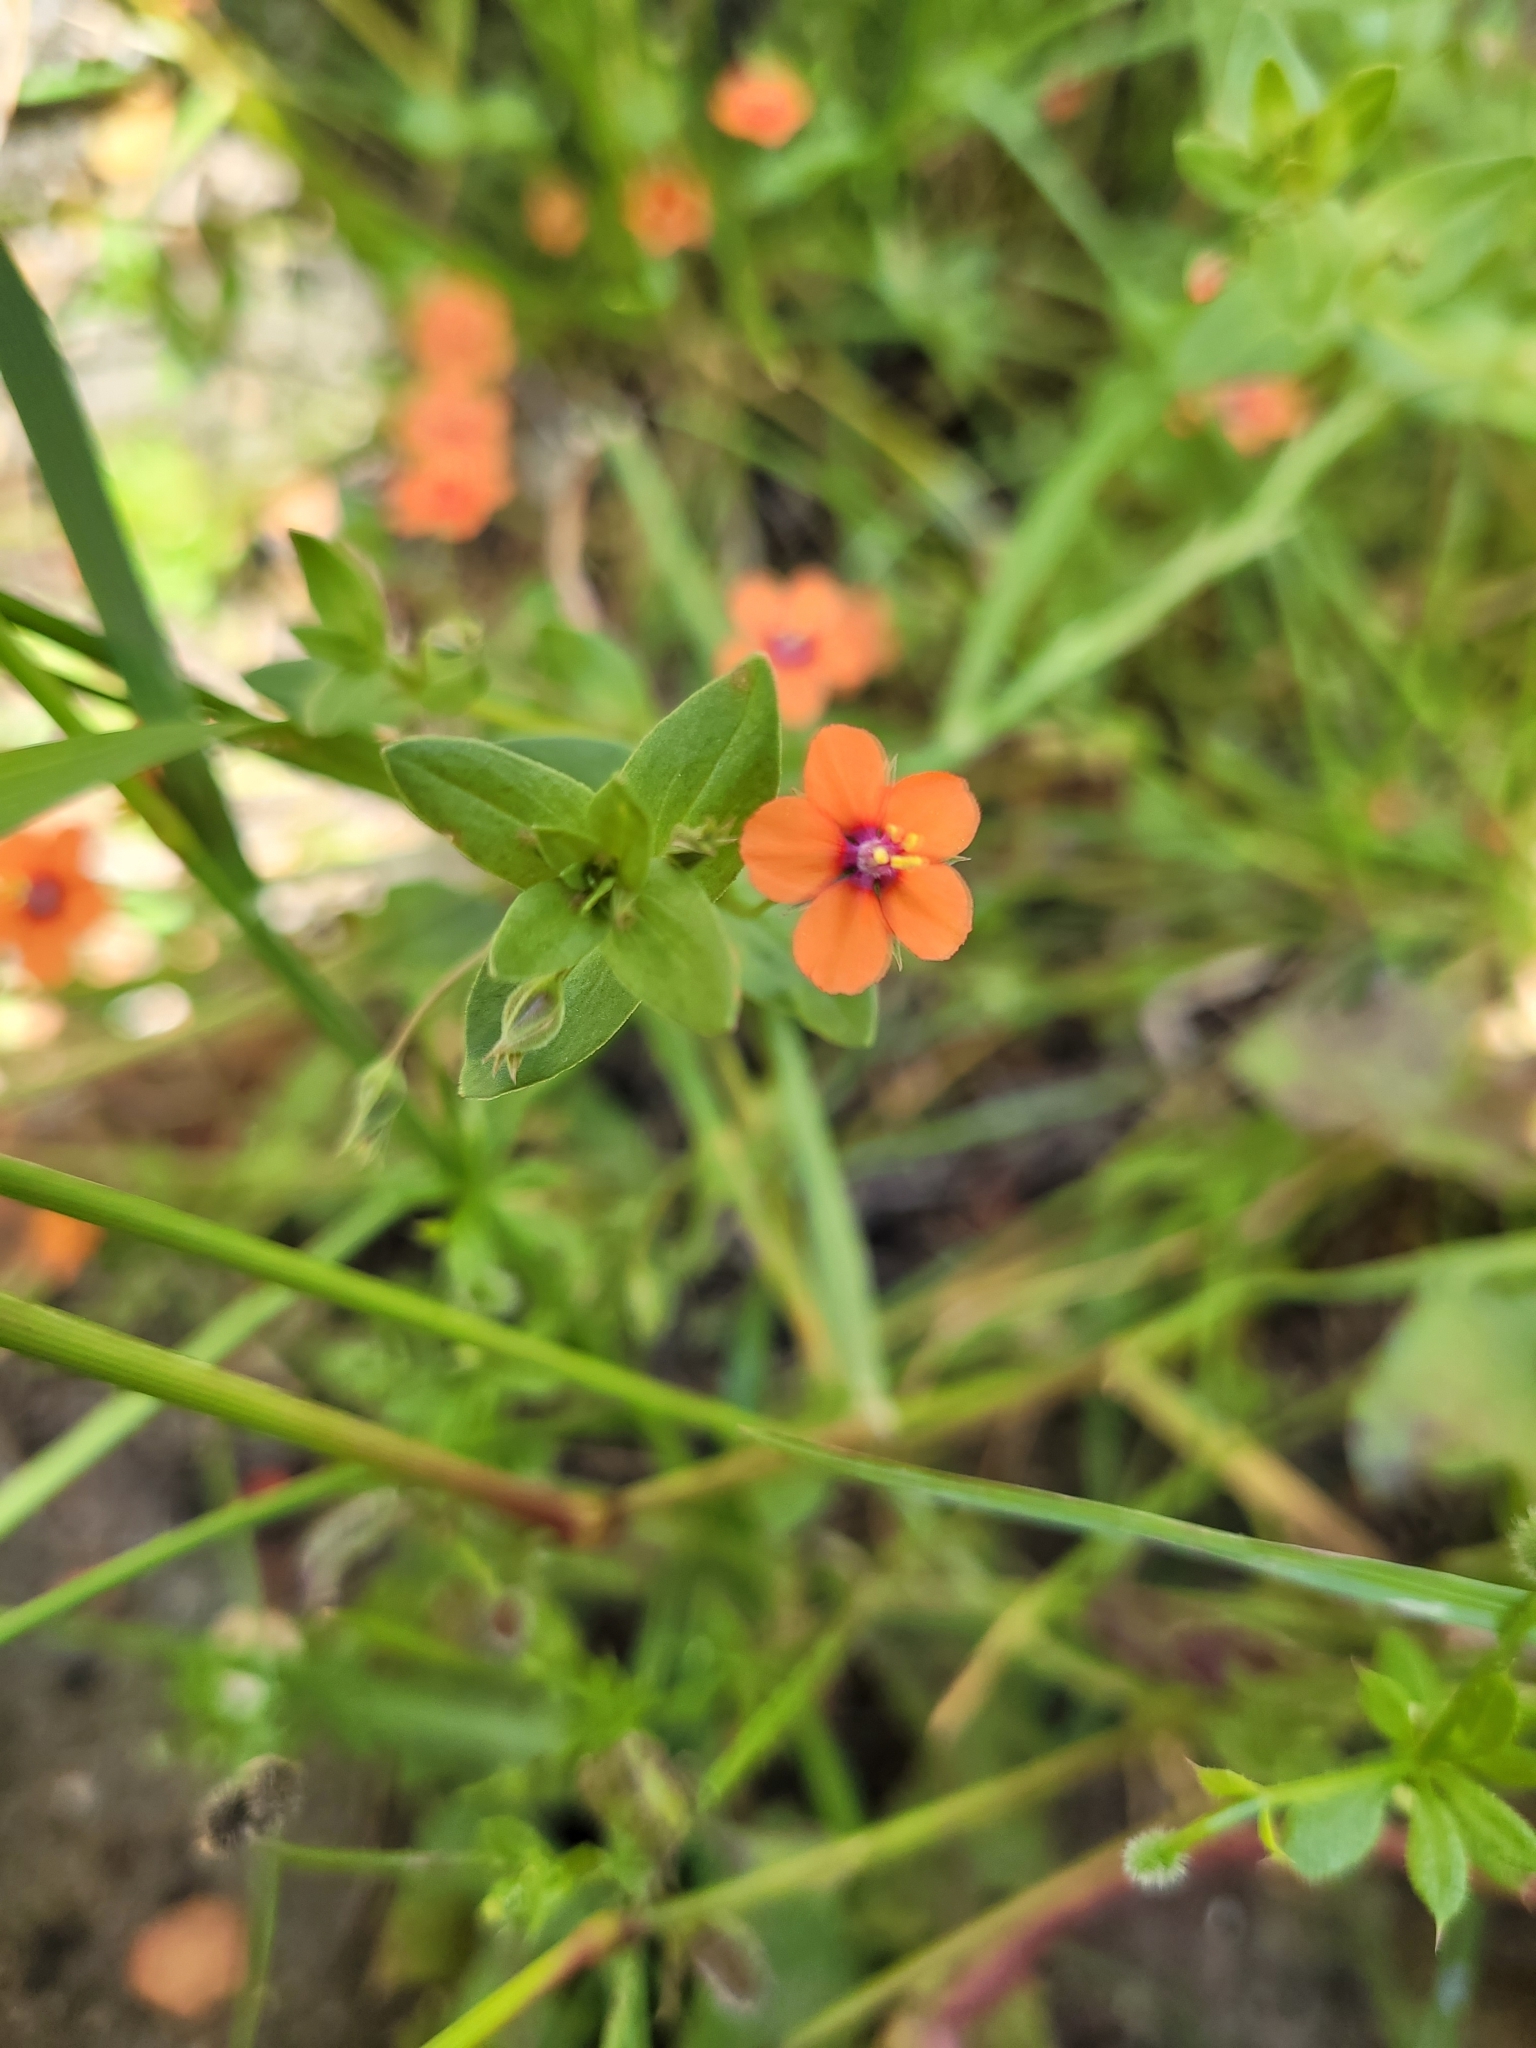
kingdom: Plantae
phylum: Tracheophyta
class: Magnoliopsida
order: Ericales
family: Primulaceae
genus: Lysimachia
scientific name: Lysimachia arvensis
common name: Scarlet pimpernel
